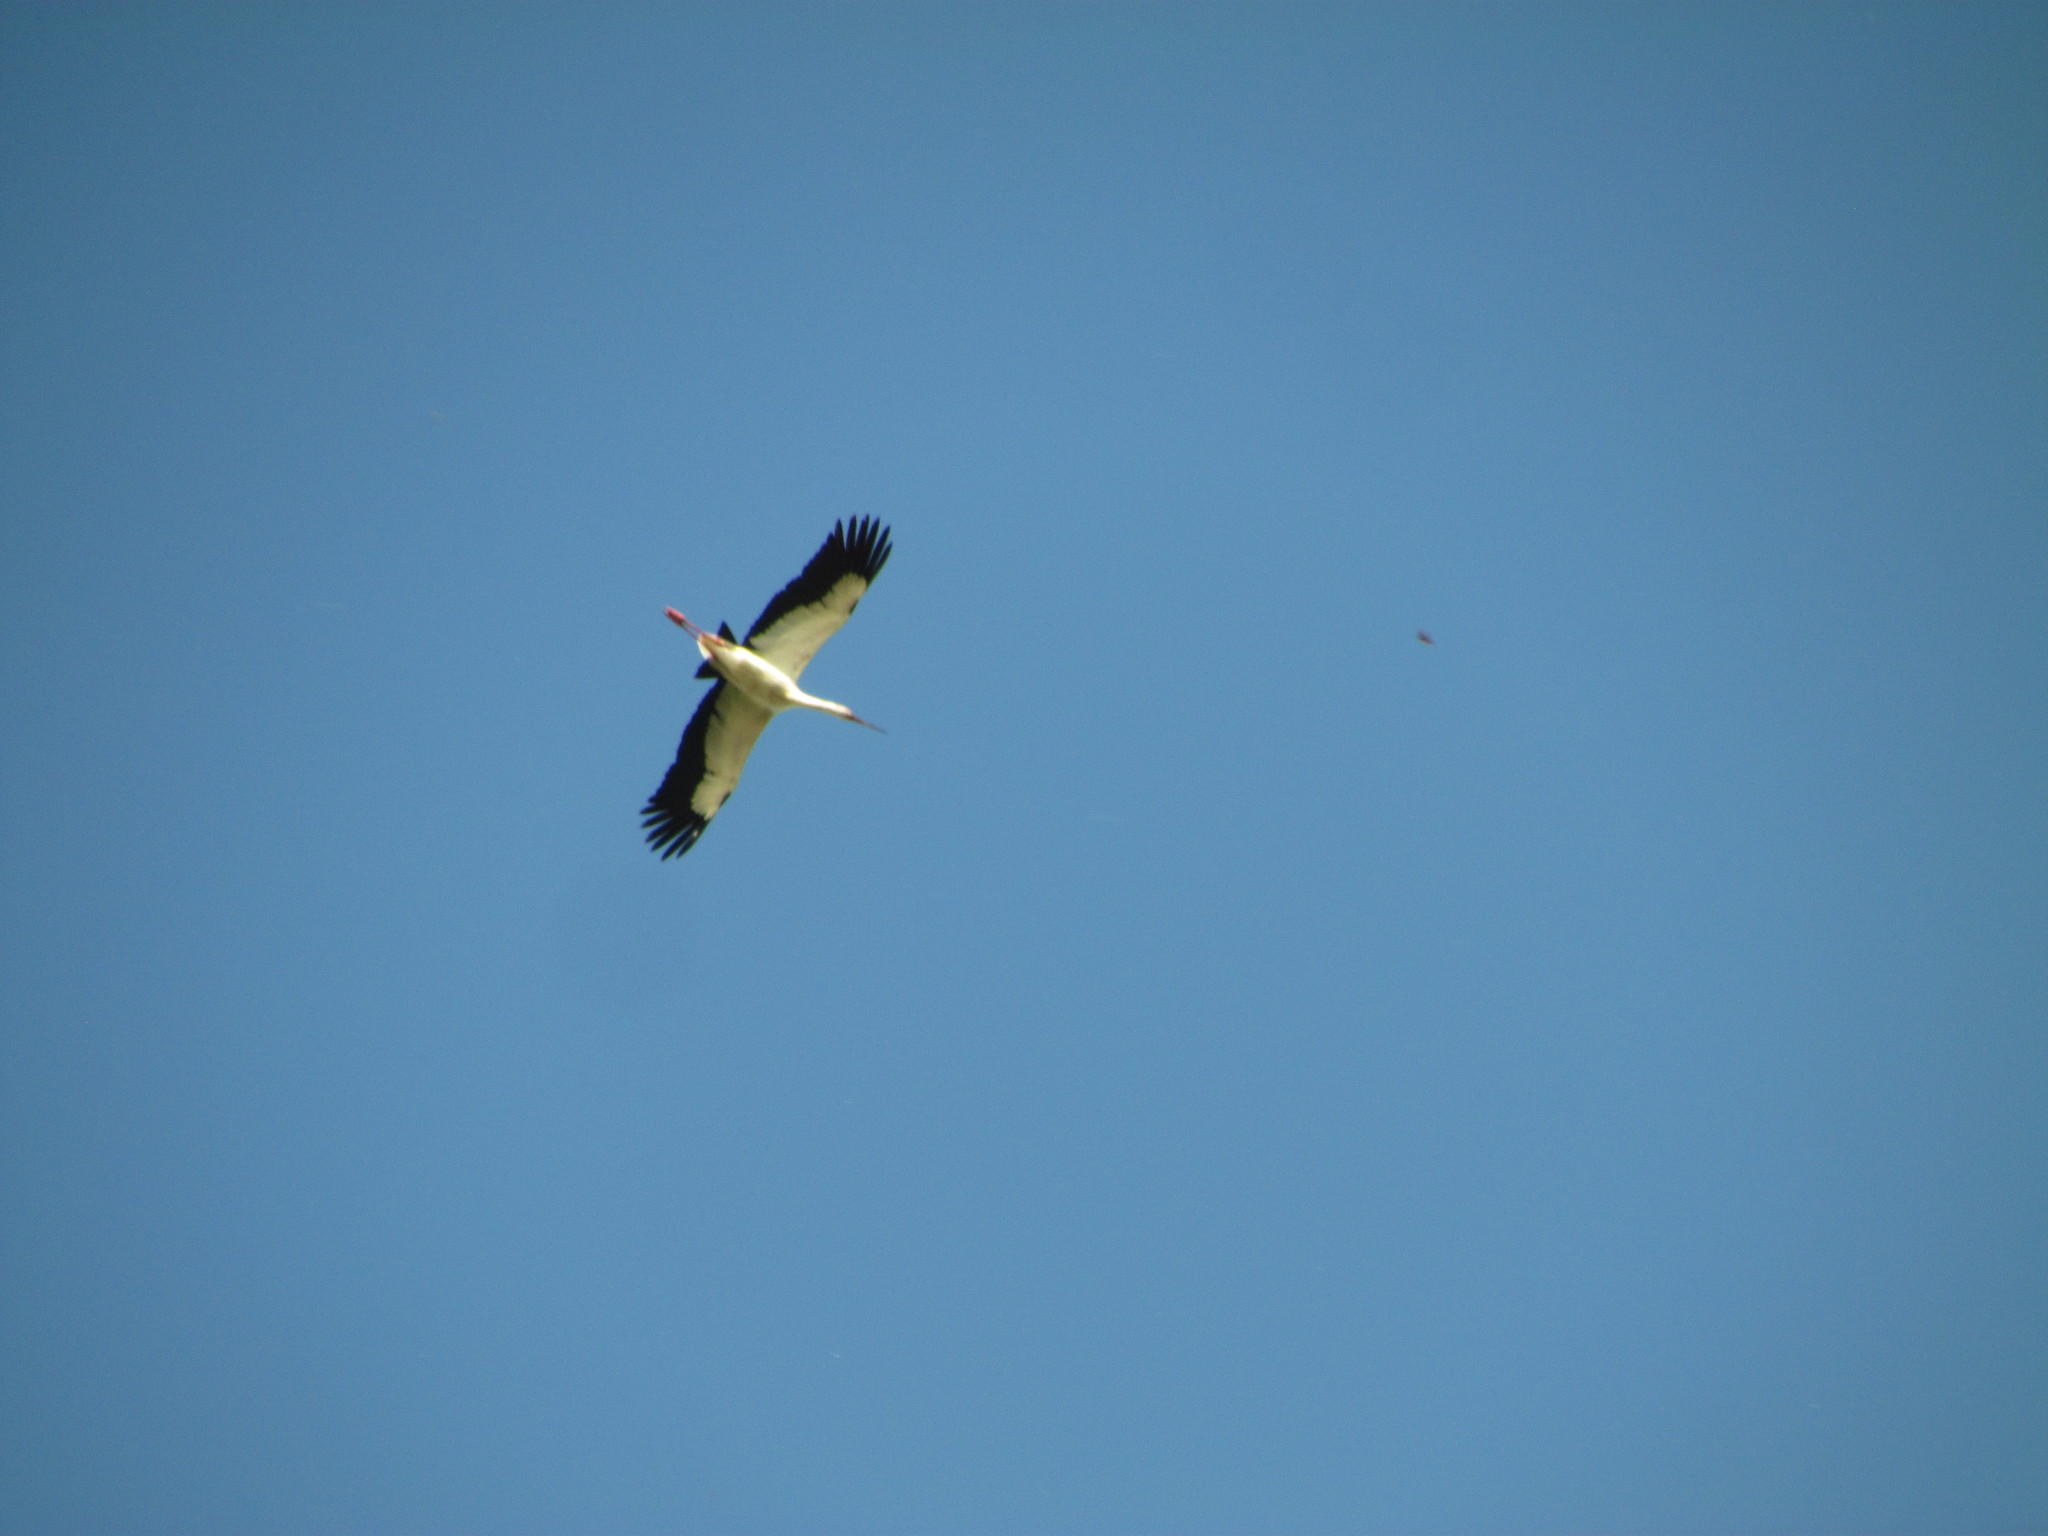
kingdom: Animalia
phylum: Chordata
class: Aves
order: Ciconiiformes
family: Ciconiidae
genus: Ciconia
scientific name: Ciconia maguari
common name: Maguari stork
